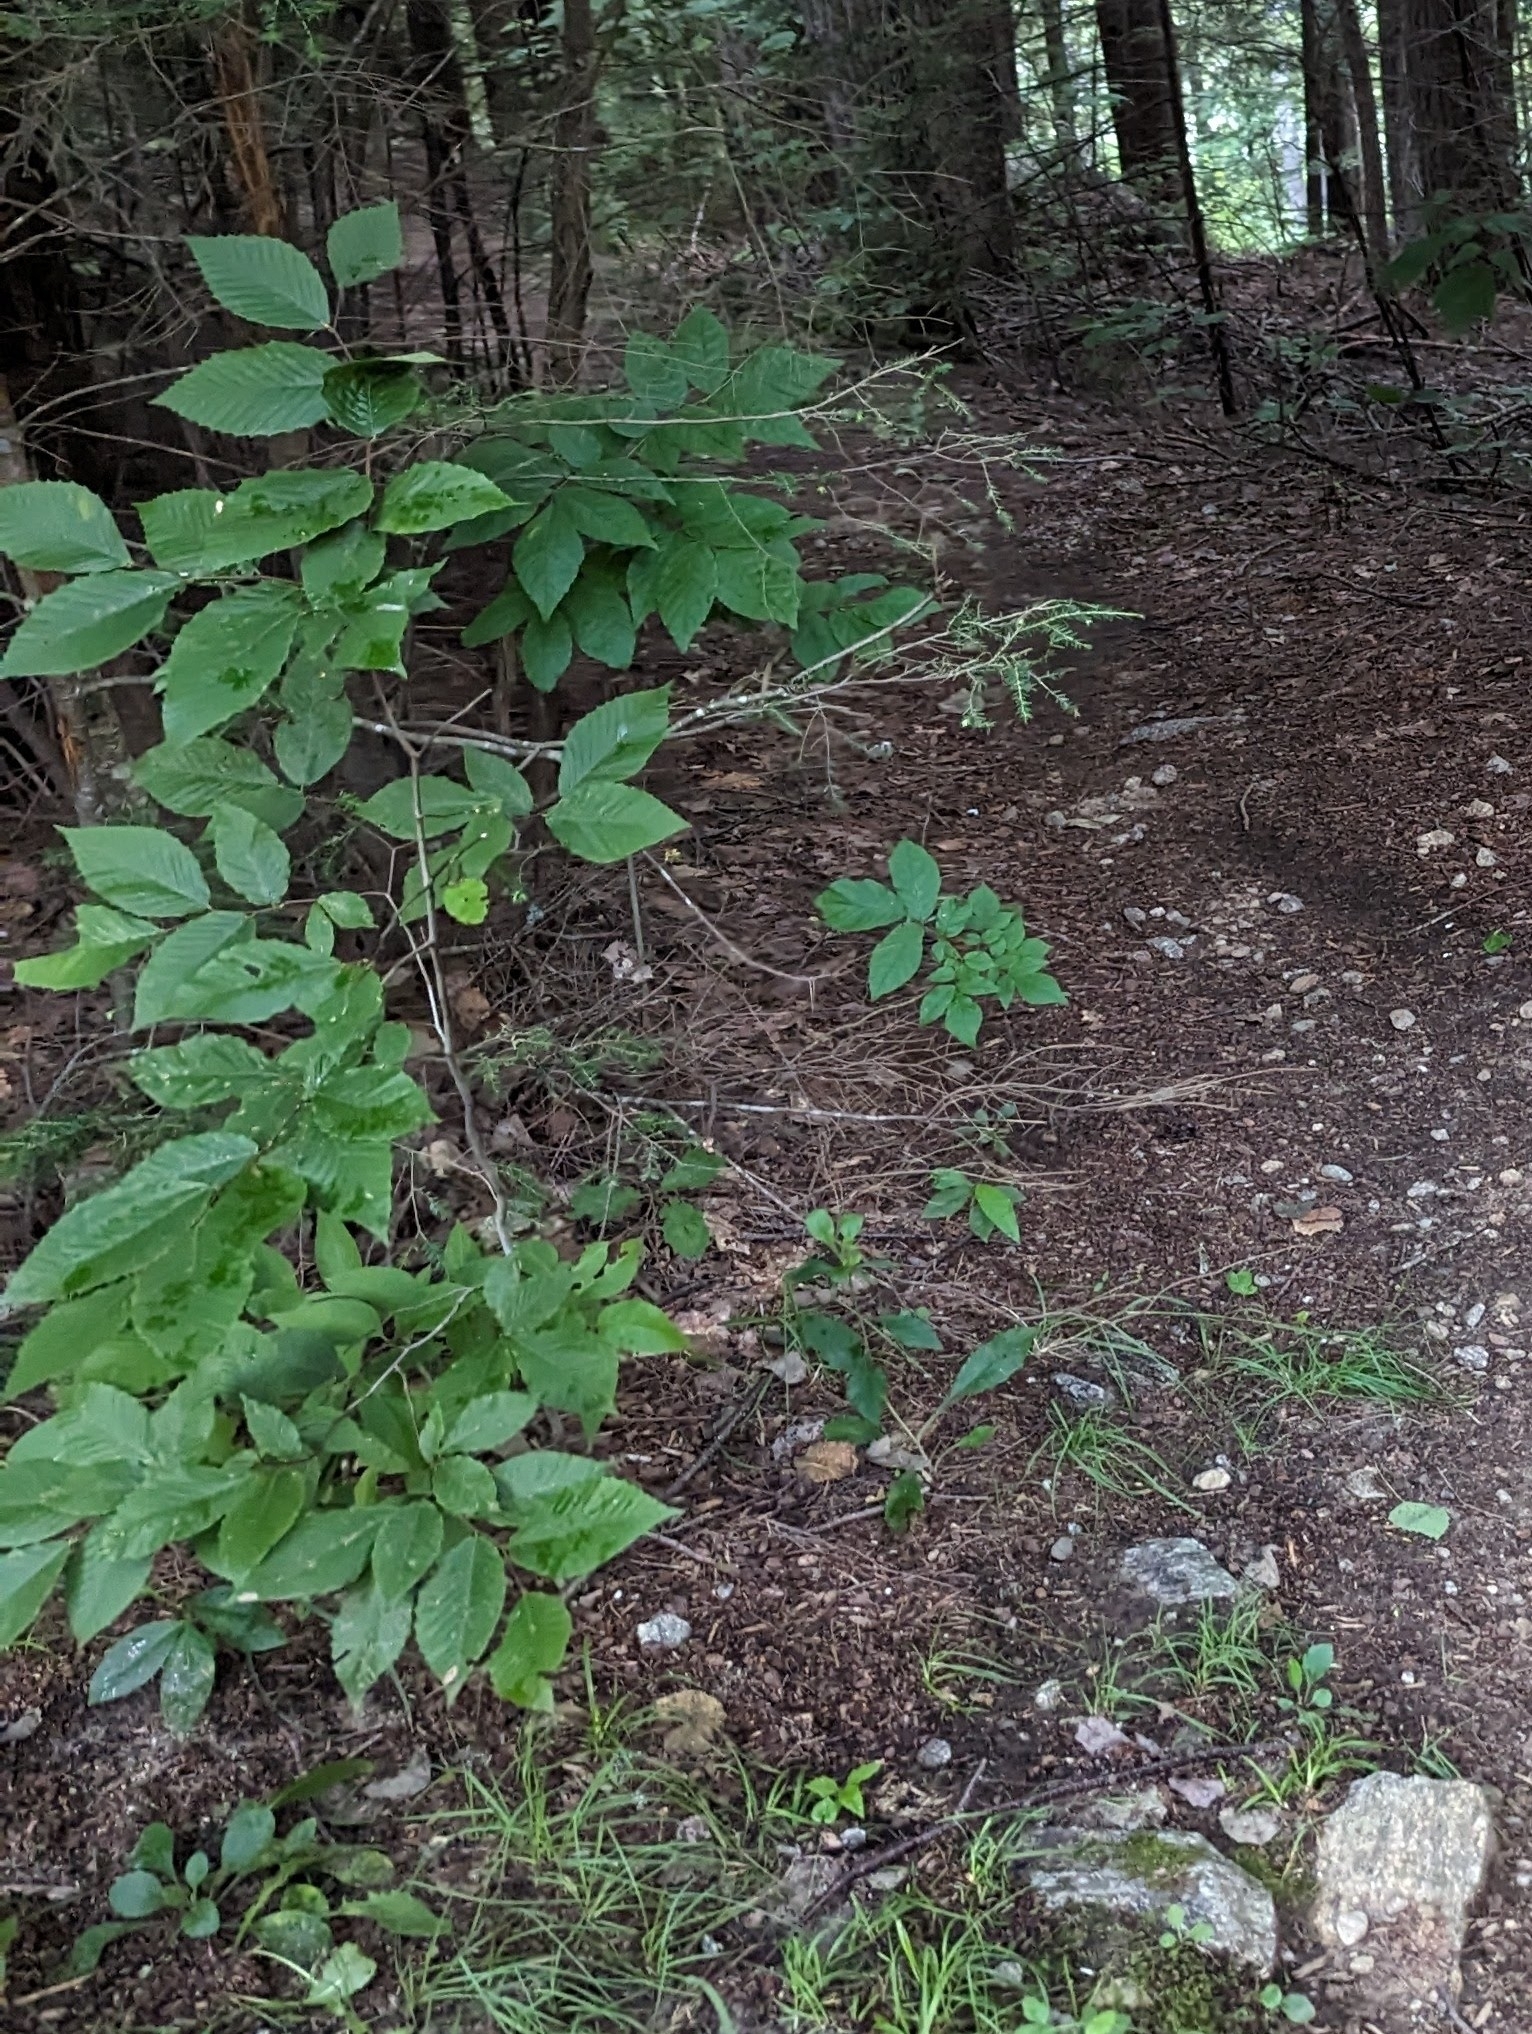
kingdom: Plantae
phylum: Tracheophyta
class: Magnoliopsida
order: Fagales
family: Fagaceae
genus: Fagus
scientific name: Fagus grandifolia
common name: American beech
